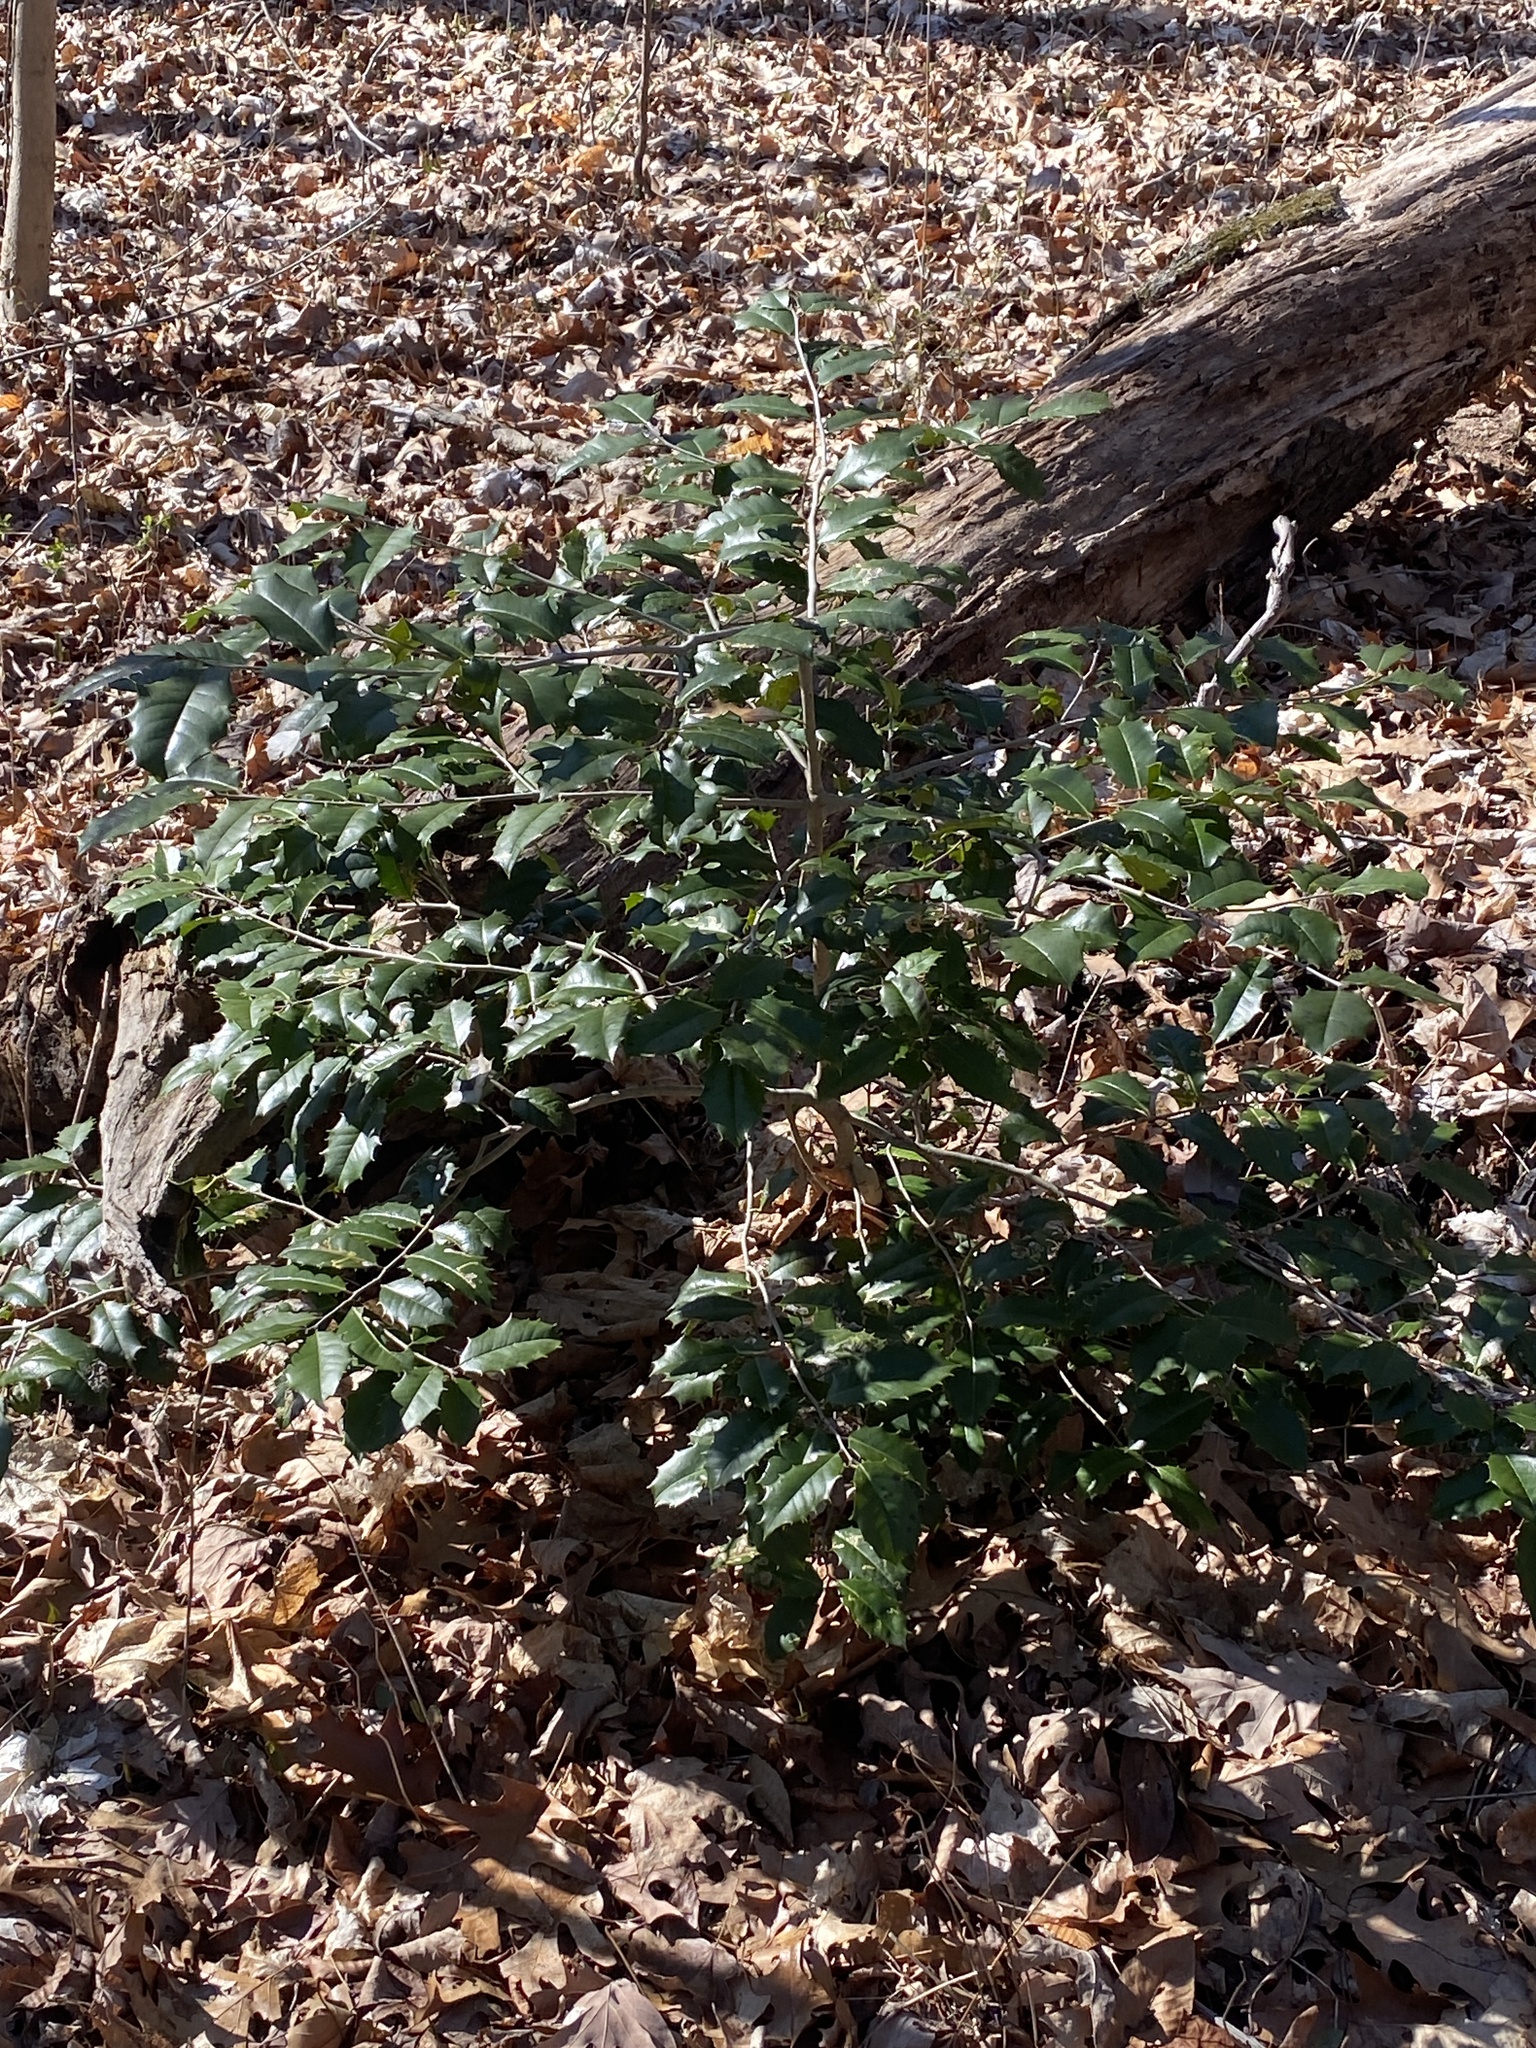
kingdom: Plantae
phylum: Tracheophyta
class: Magnoliopsida
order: Aquifoliales
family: Aquifoliaceae
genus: Ilex
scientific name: Ilex opaca
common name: American holly
